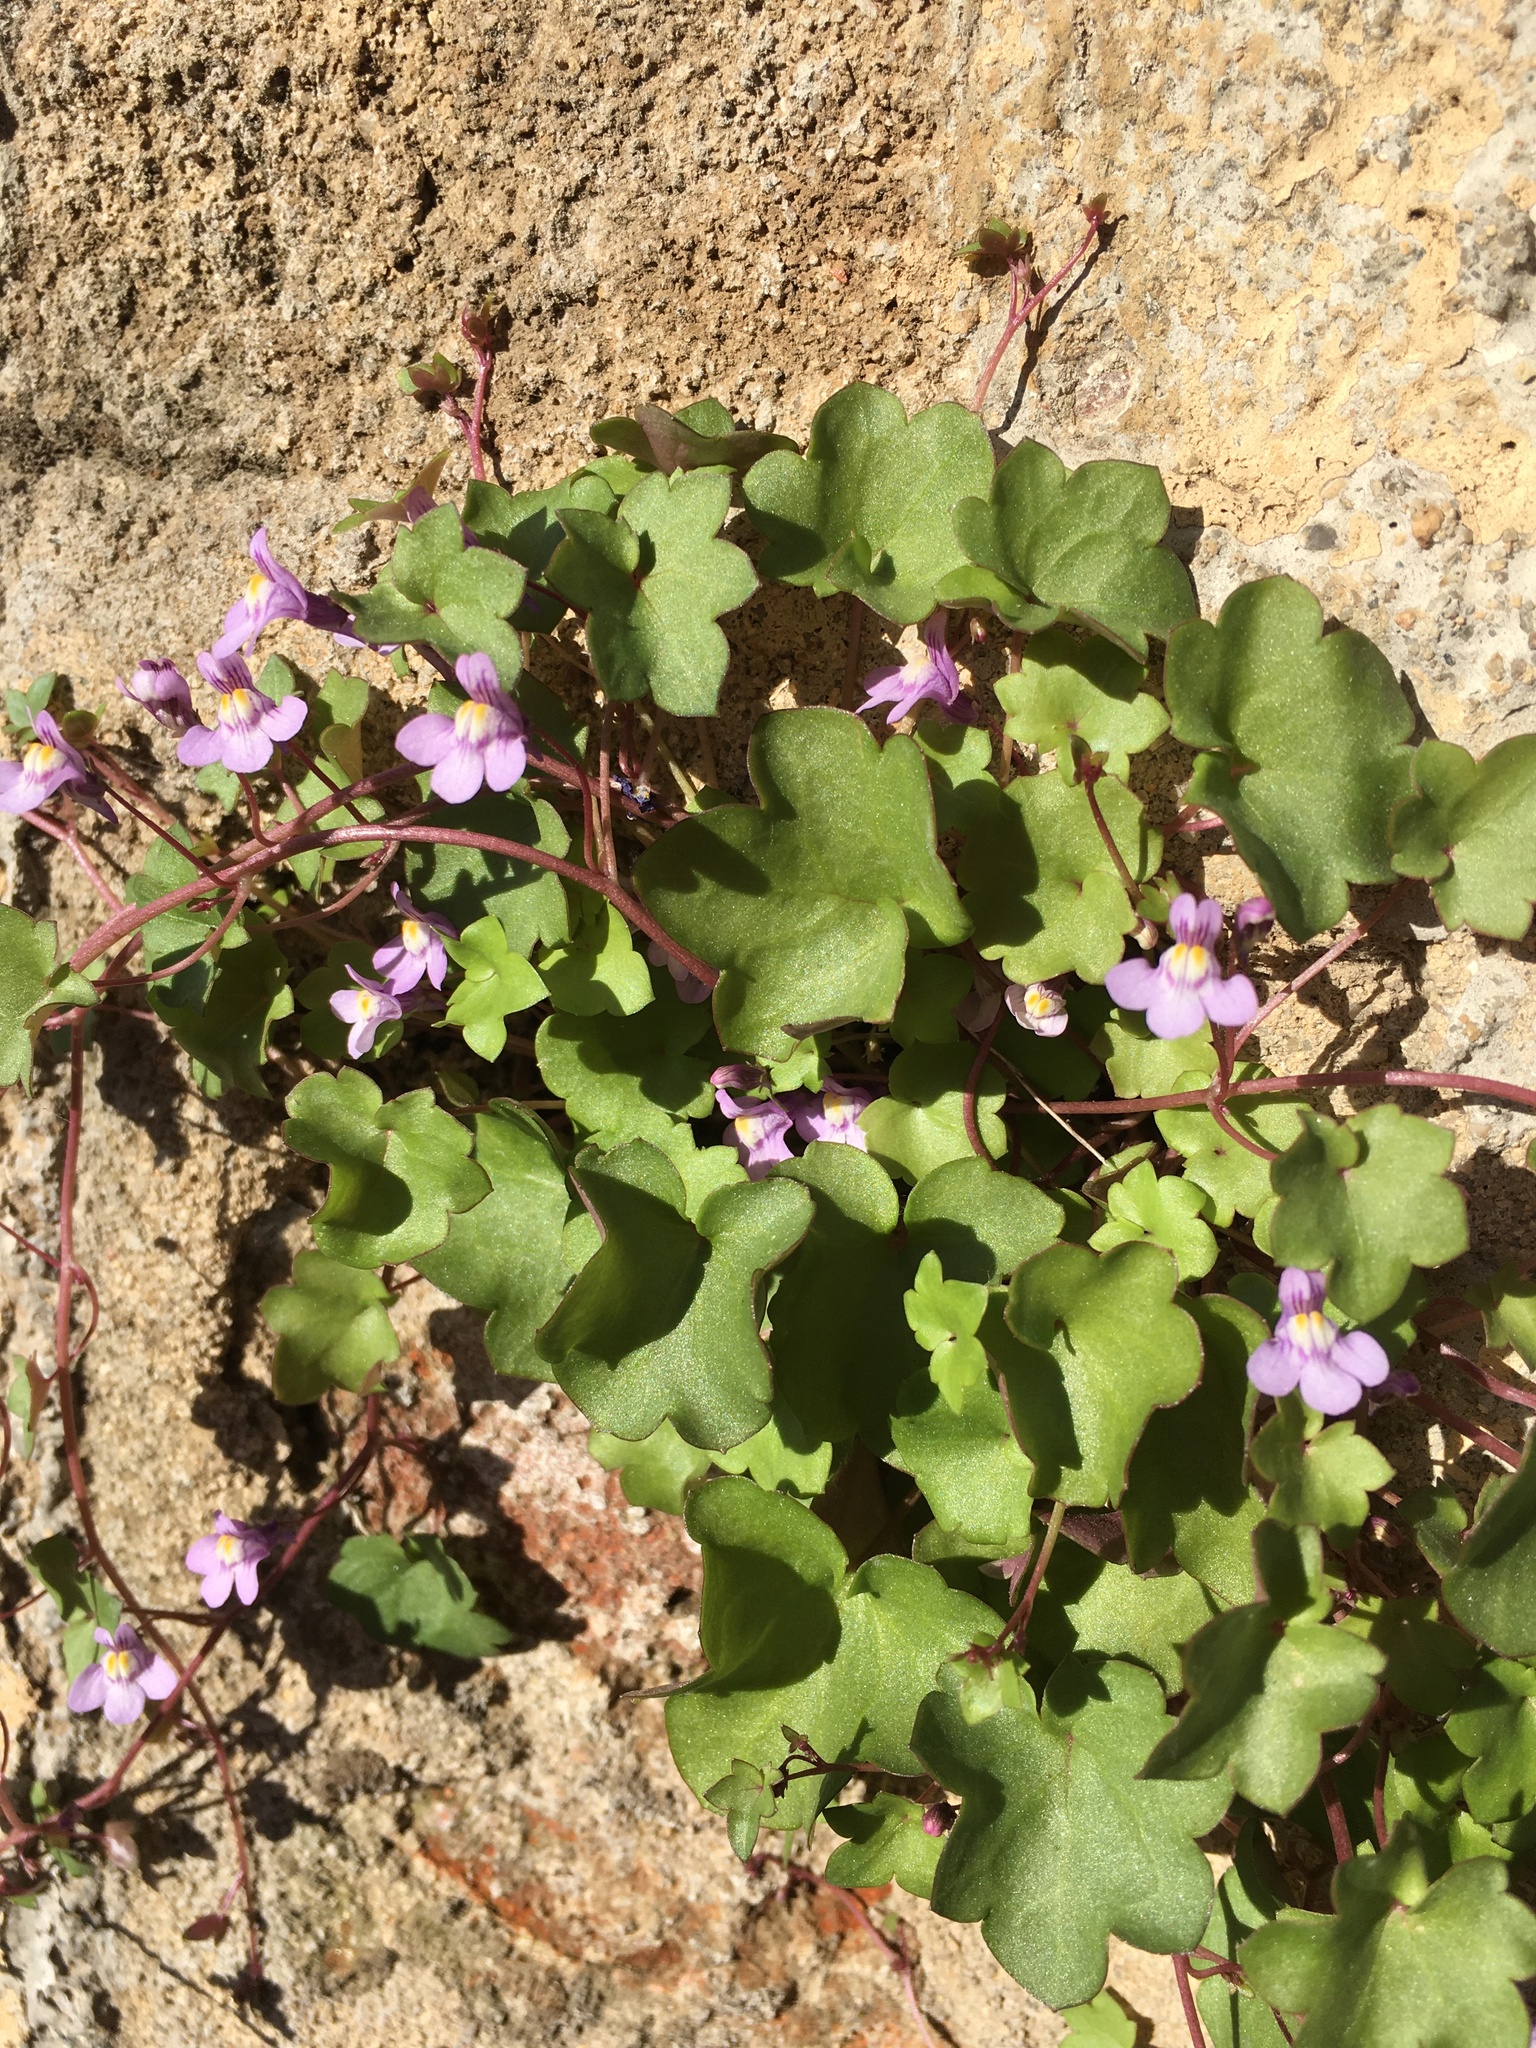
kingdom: Plantae
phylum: Tracheophyta
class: Magnoliopsida
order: Lamiales
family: Plantaginaceae
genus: Cymbalaria
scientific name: Cymbalaria muralis
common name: Ivy-leaved toadflax
